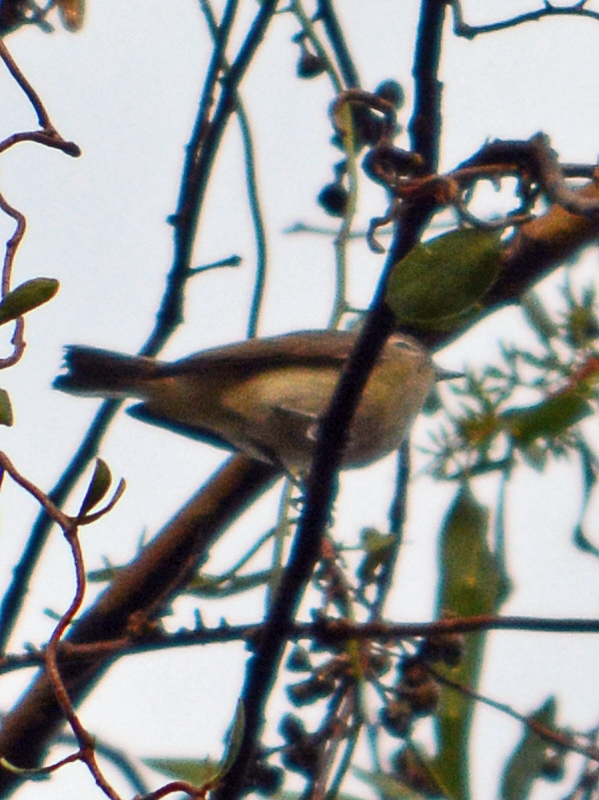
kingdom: Animalia
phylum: Chordata
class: Aves
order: Passeriformes
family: Vireonidae
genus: Vireo
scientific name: Vireo gilvus
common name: Warbling vireo
